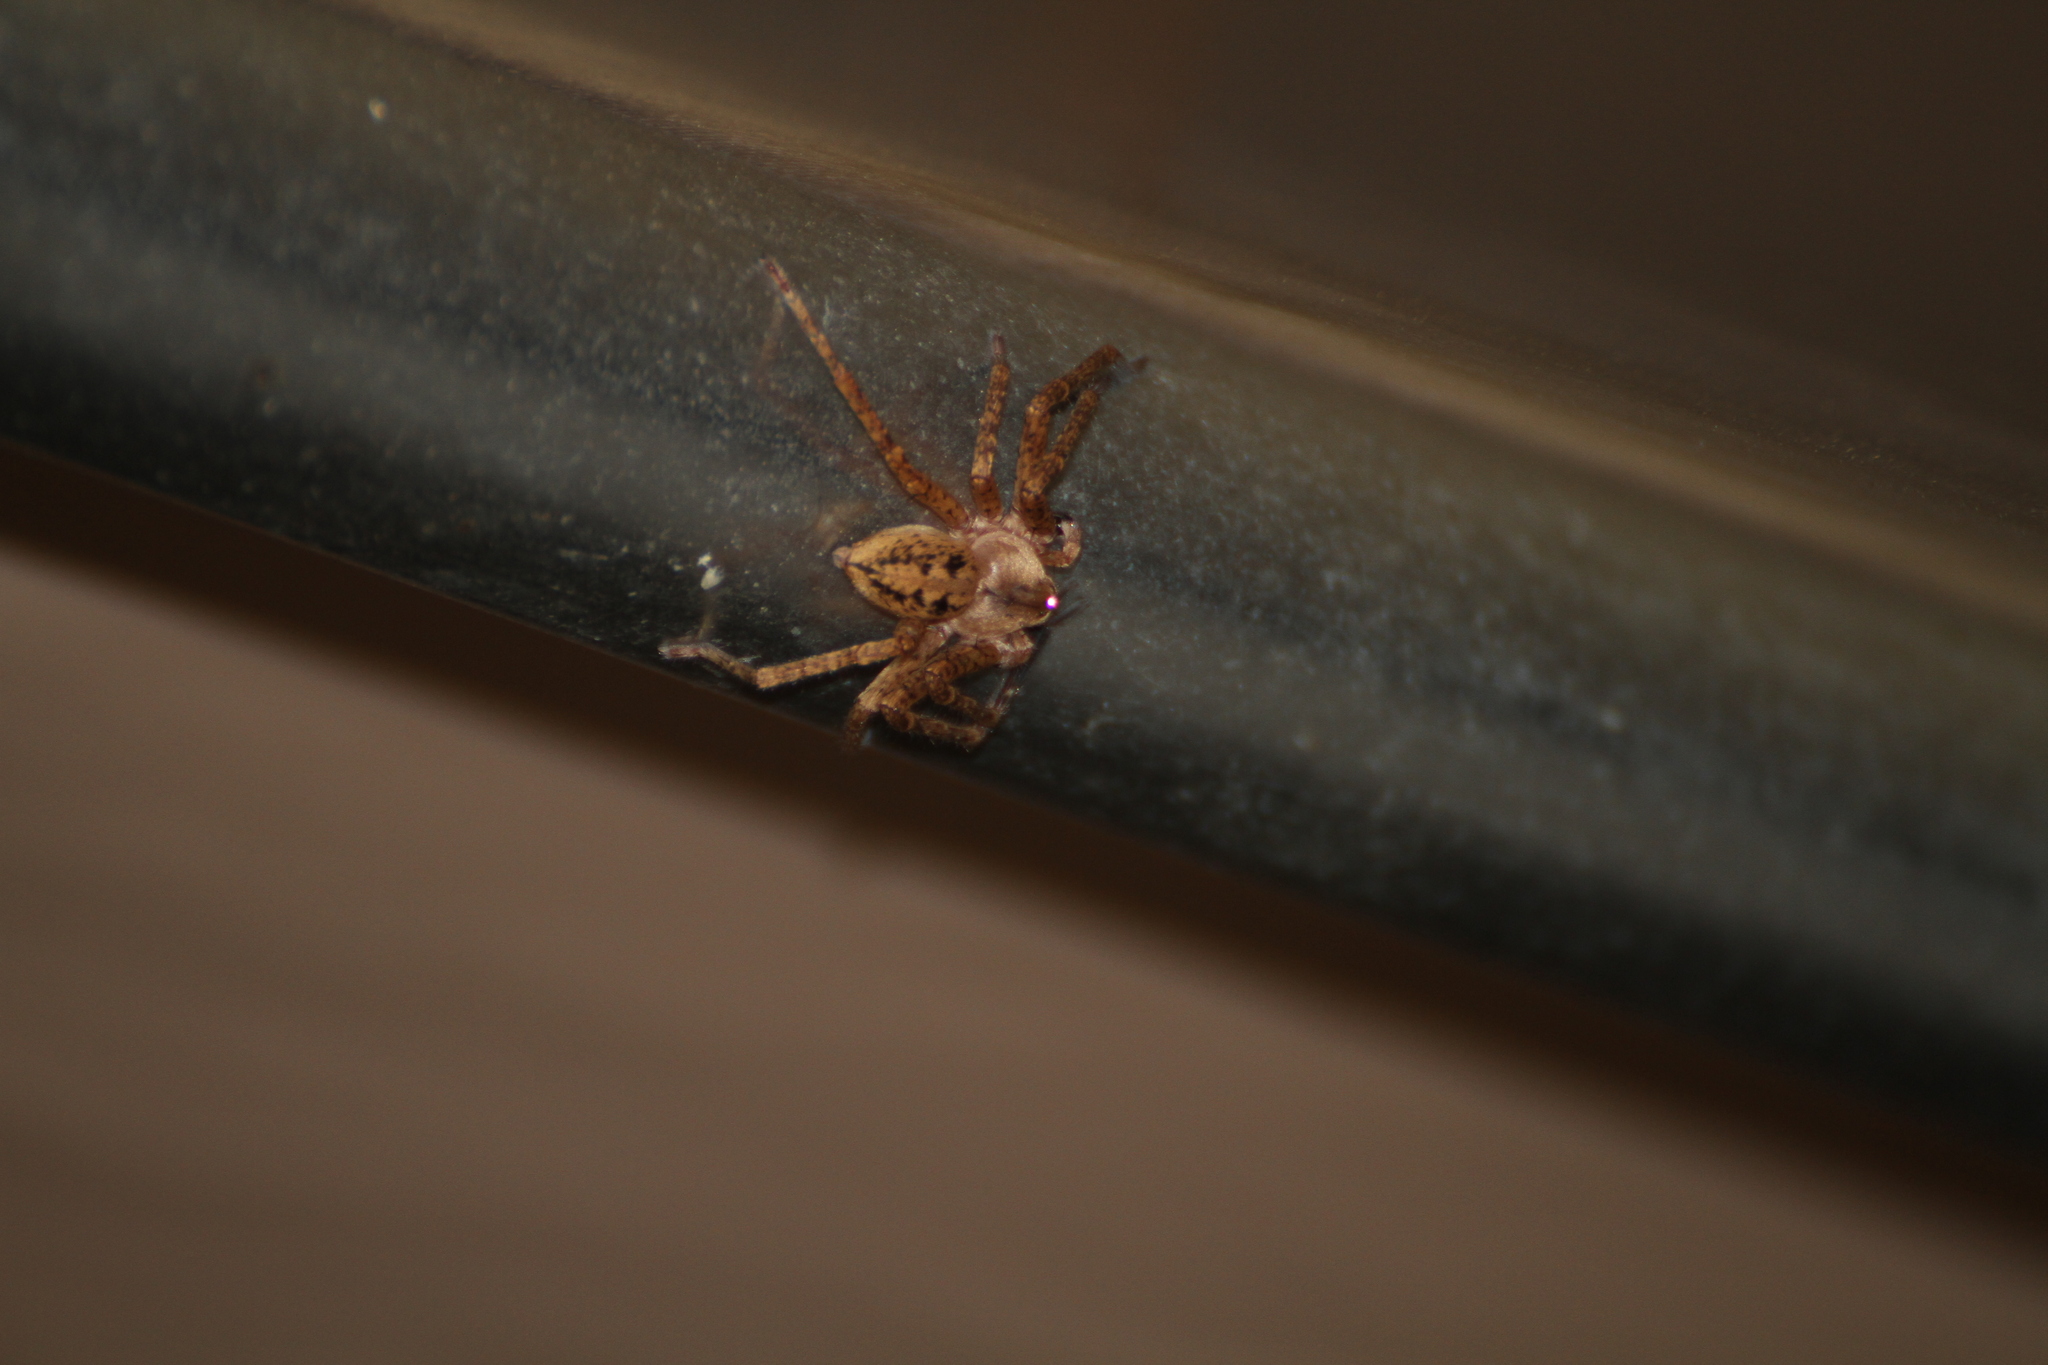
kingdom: Animalia
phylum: Arthropoda
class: Arachnida
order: Araneae
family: Sparassidae
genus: Olios
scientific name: Olios argelasius
